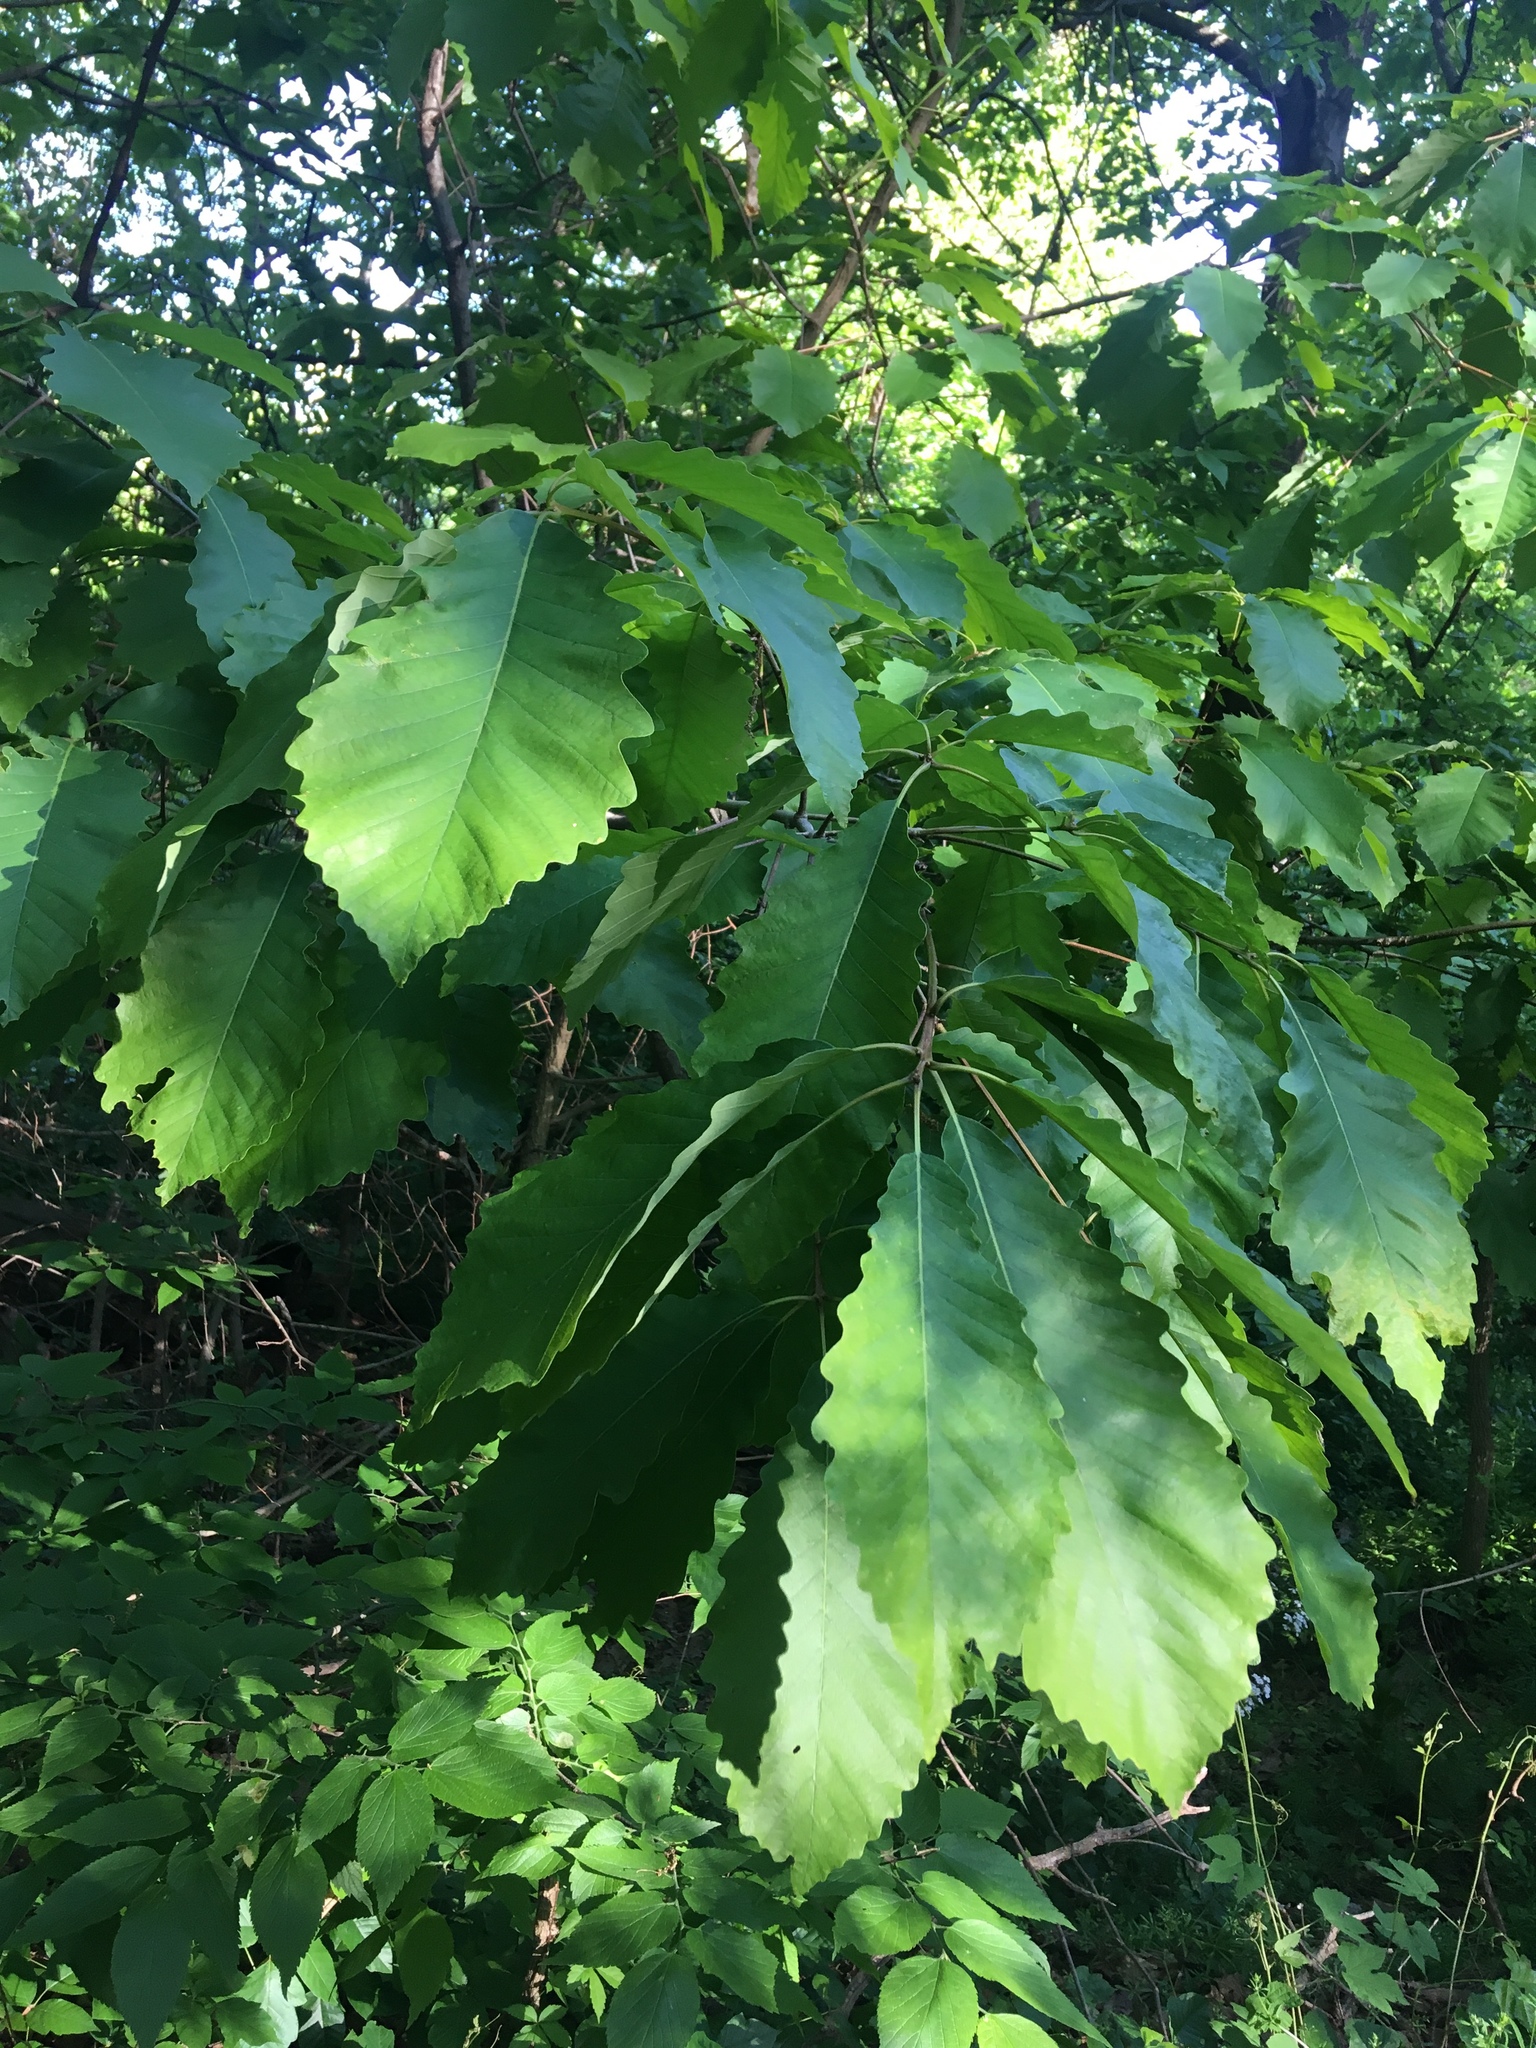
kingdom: Plantae
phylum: Tracheophyta
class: Magnoliopsida
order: Fagales
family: Fagaceae
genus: Quercus
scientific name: Quercus montana
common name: Chestnut oak
